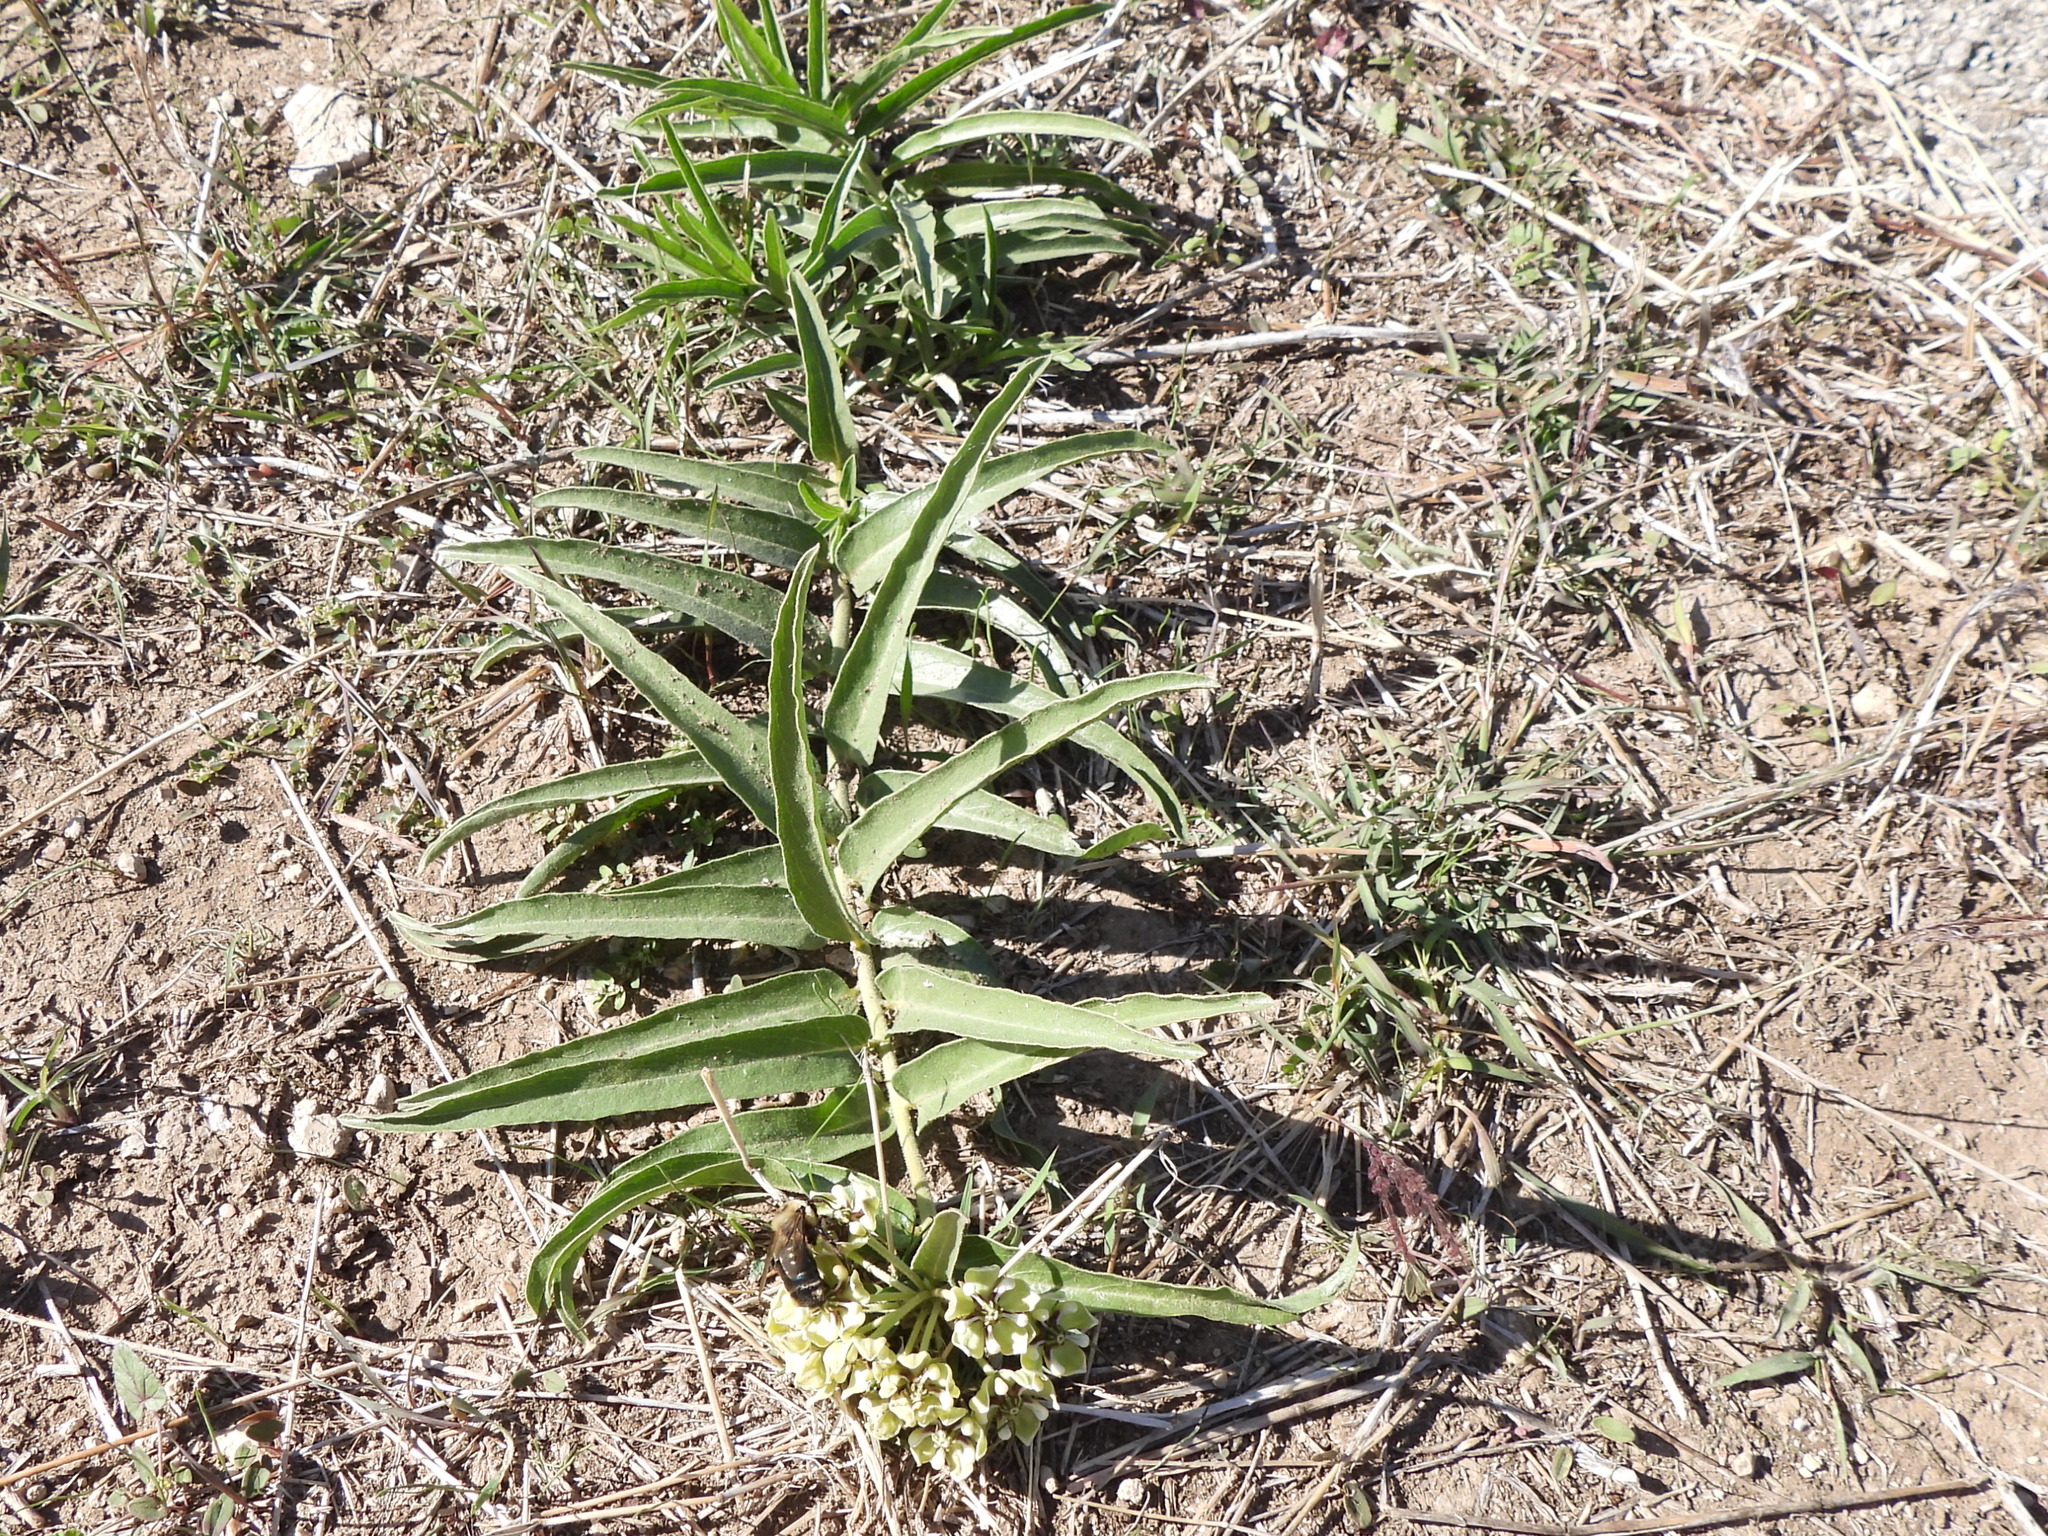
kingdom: Plantae
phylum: Tracheophyta
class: Magnoliopsida
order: Gentianales
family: Apocynaceae
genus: Asclepias
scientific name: Asclepias asperula
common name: Antelope horns
